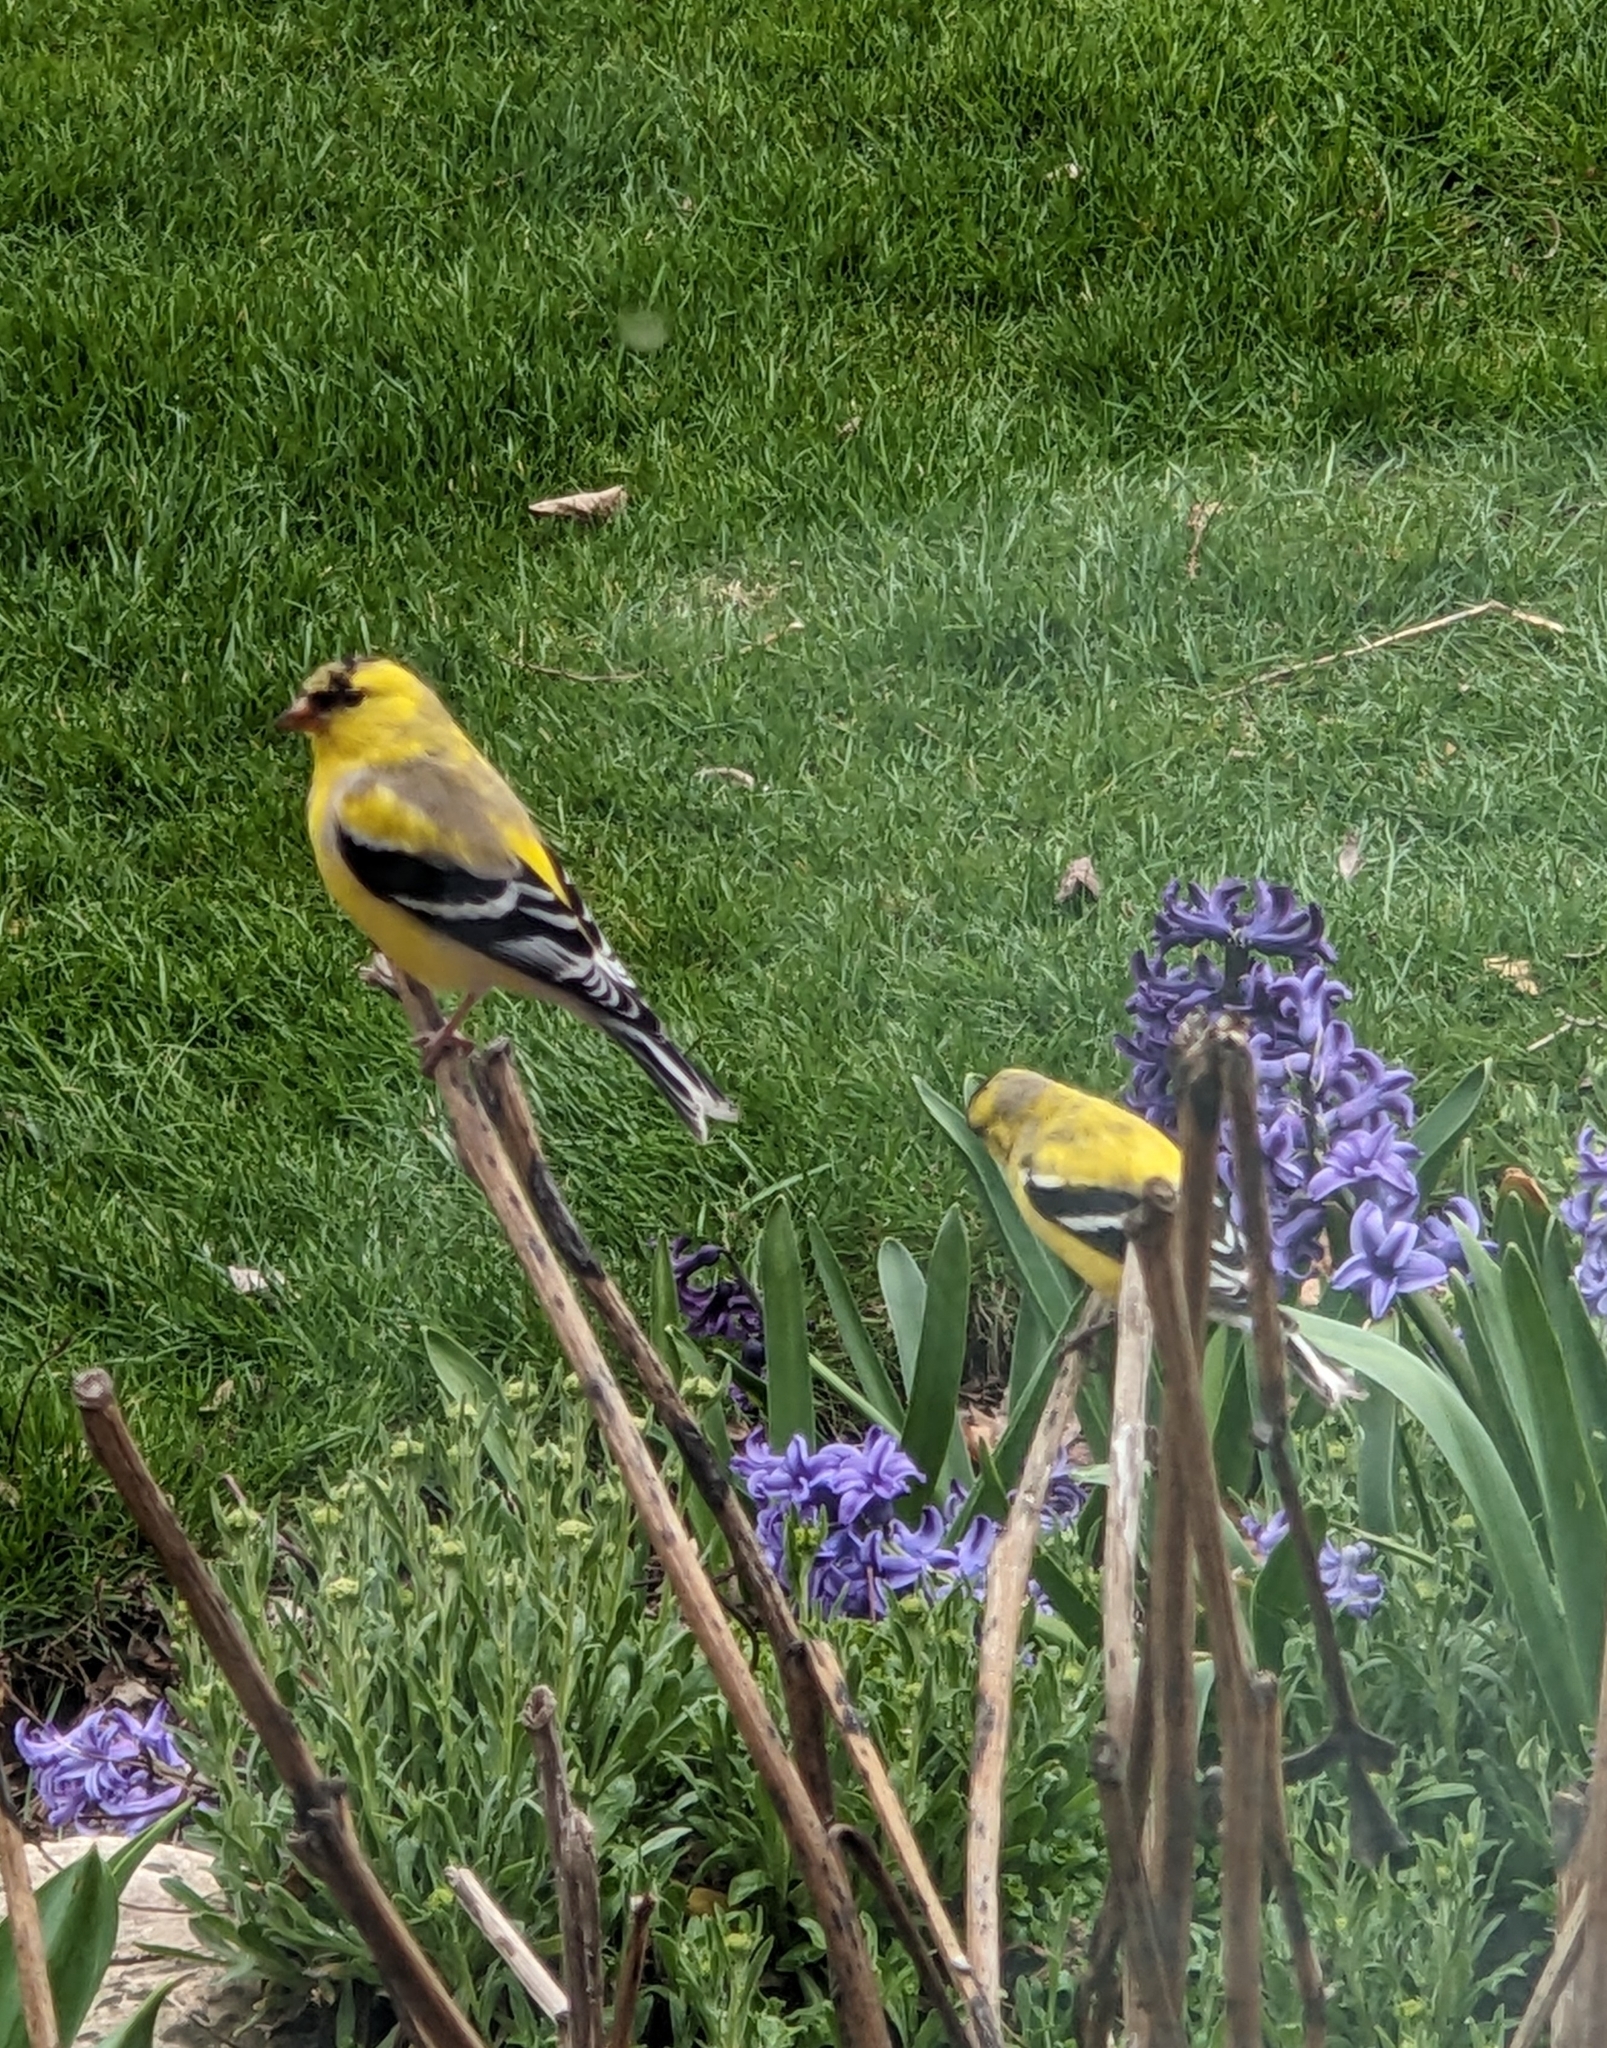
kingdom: Animalia
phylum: Chordata
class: Aves
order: Passeriformes
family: Fringillidae
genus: Spinus
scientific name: Spinus tristis
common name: American goldfinch
